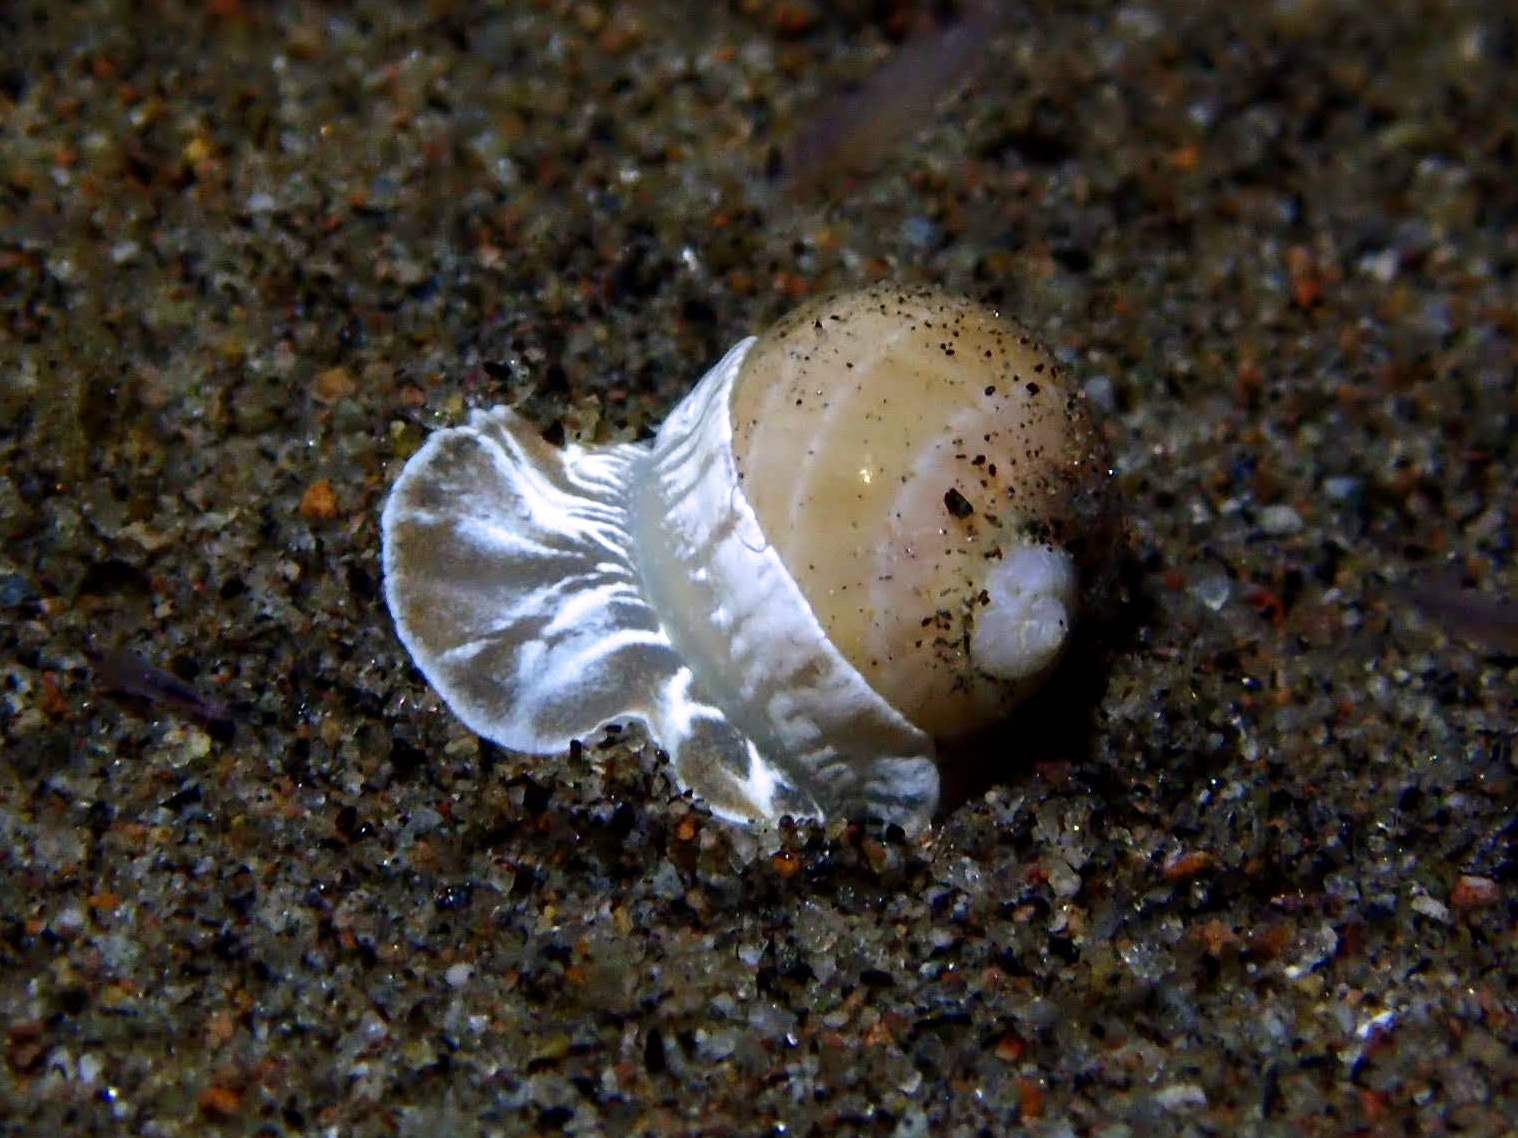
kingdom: Animalia
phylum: Mollusca
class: Gastropoda
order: Littorinimorpha
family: Naticidae
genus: Glyphepithema
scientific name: Glyphepithema alapapilionis
